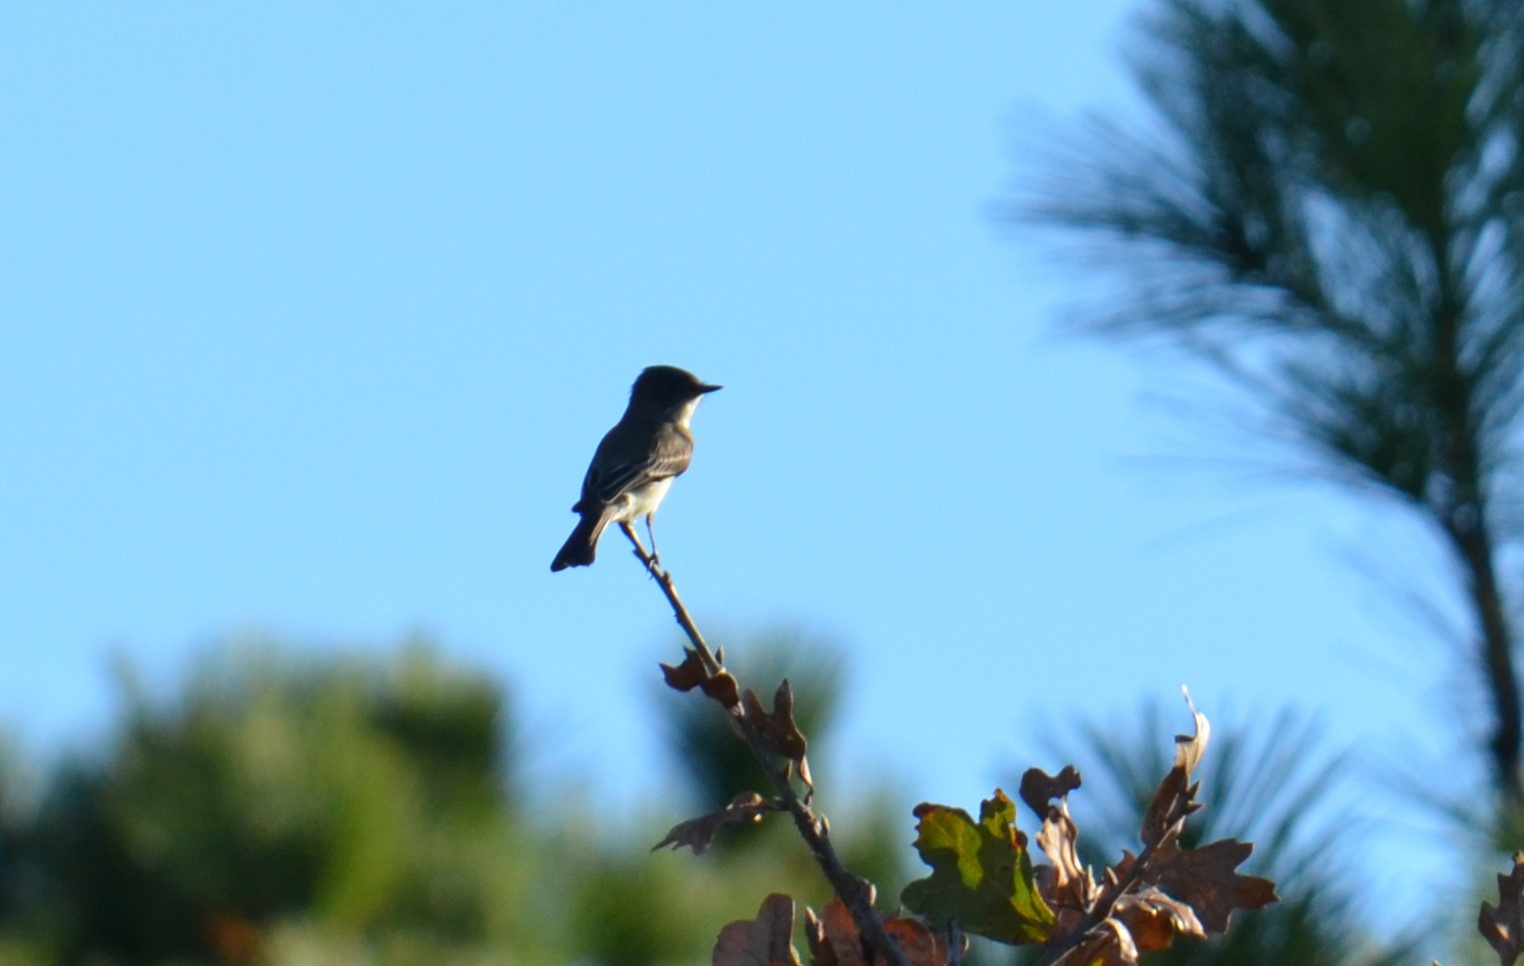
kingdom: Animalia
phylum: Chordata
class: Aves
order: Passeriformes
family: Tyrannidae
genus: Sayornis
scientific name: Sayornis phoebe
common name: Eastern phoebe
